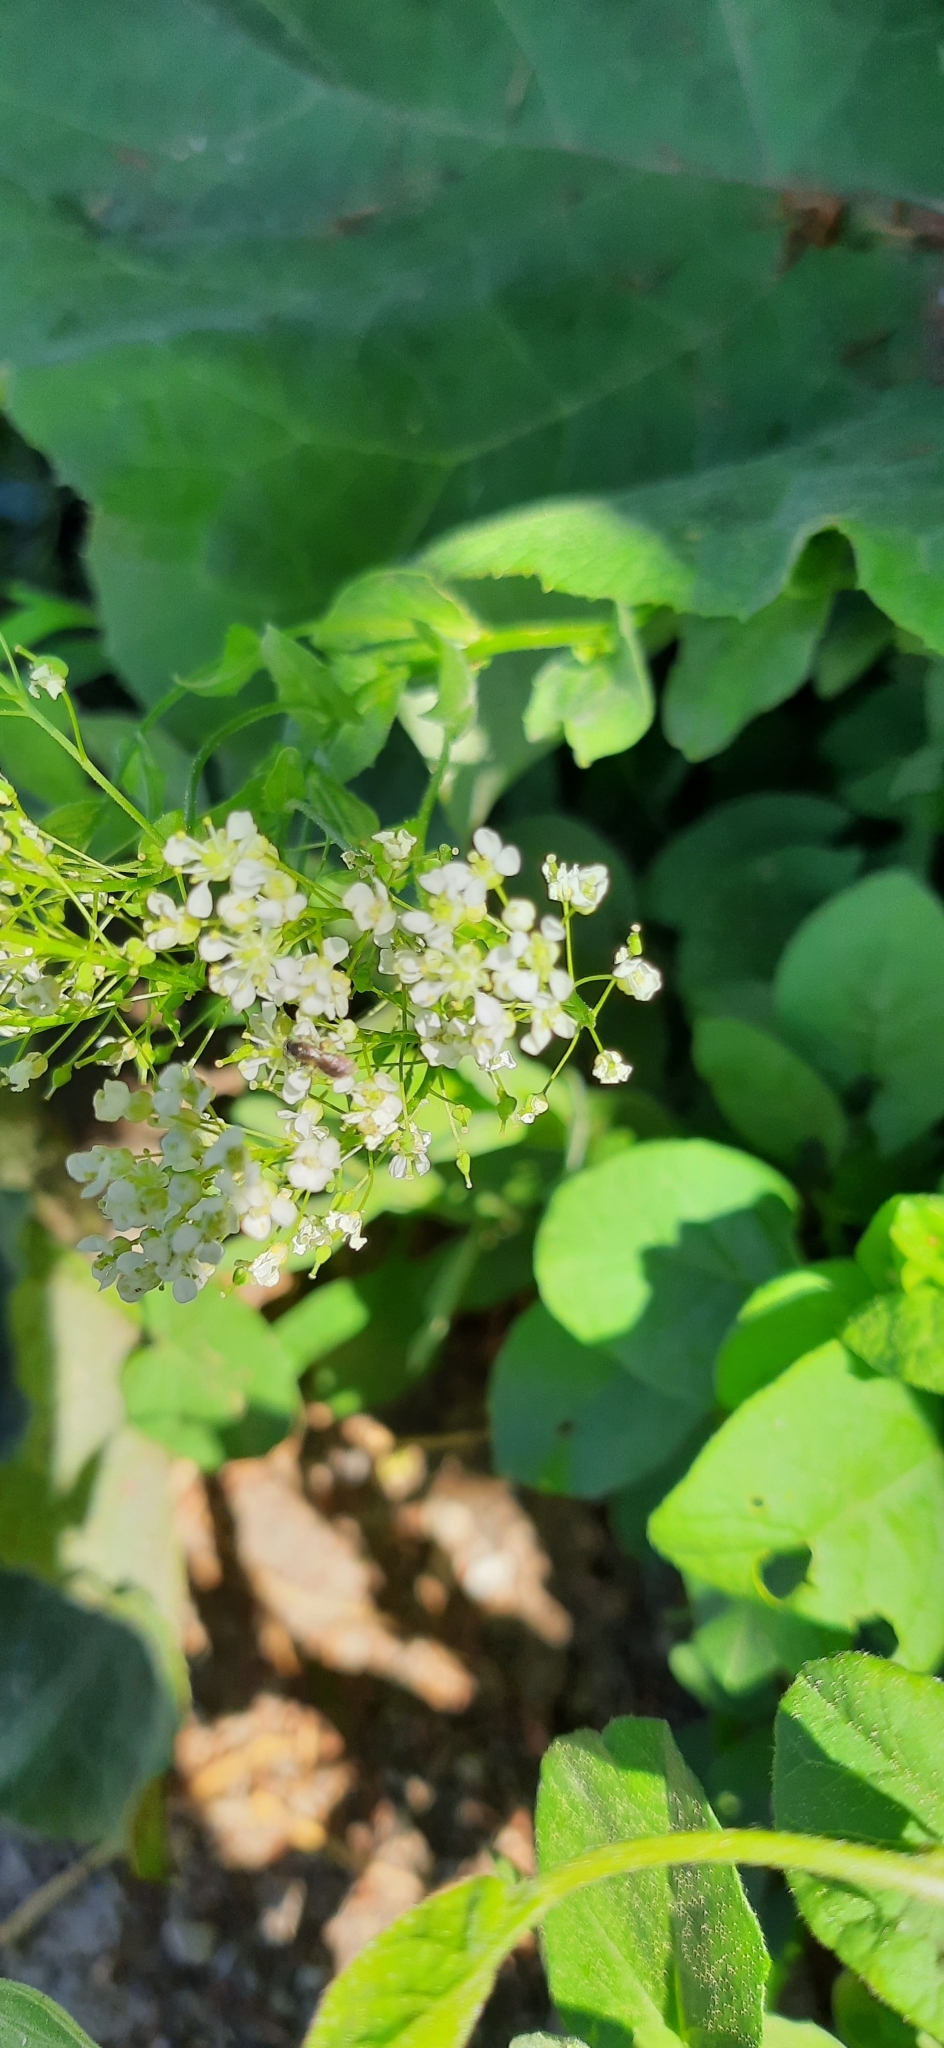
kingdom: Animalia
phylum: Arthropoda
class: Insecta
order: Hymenoptera
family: Halictidae
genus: Dialictus
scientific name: Dialictus
